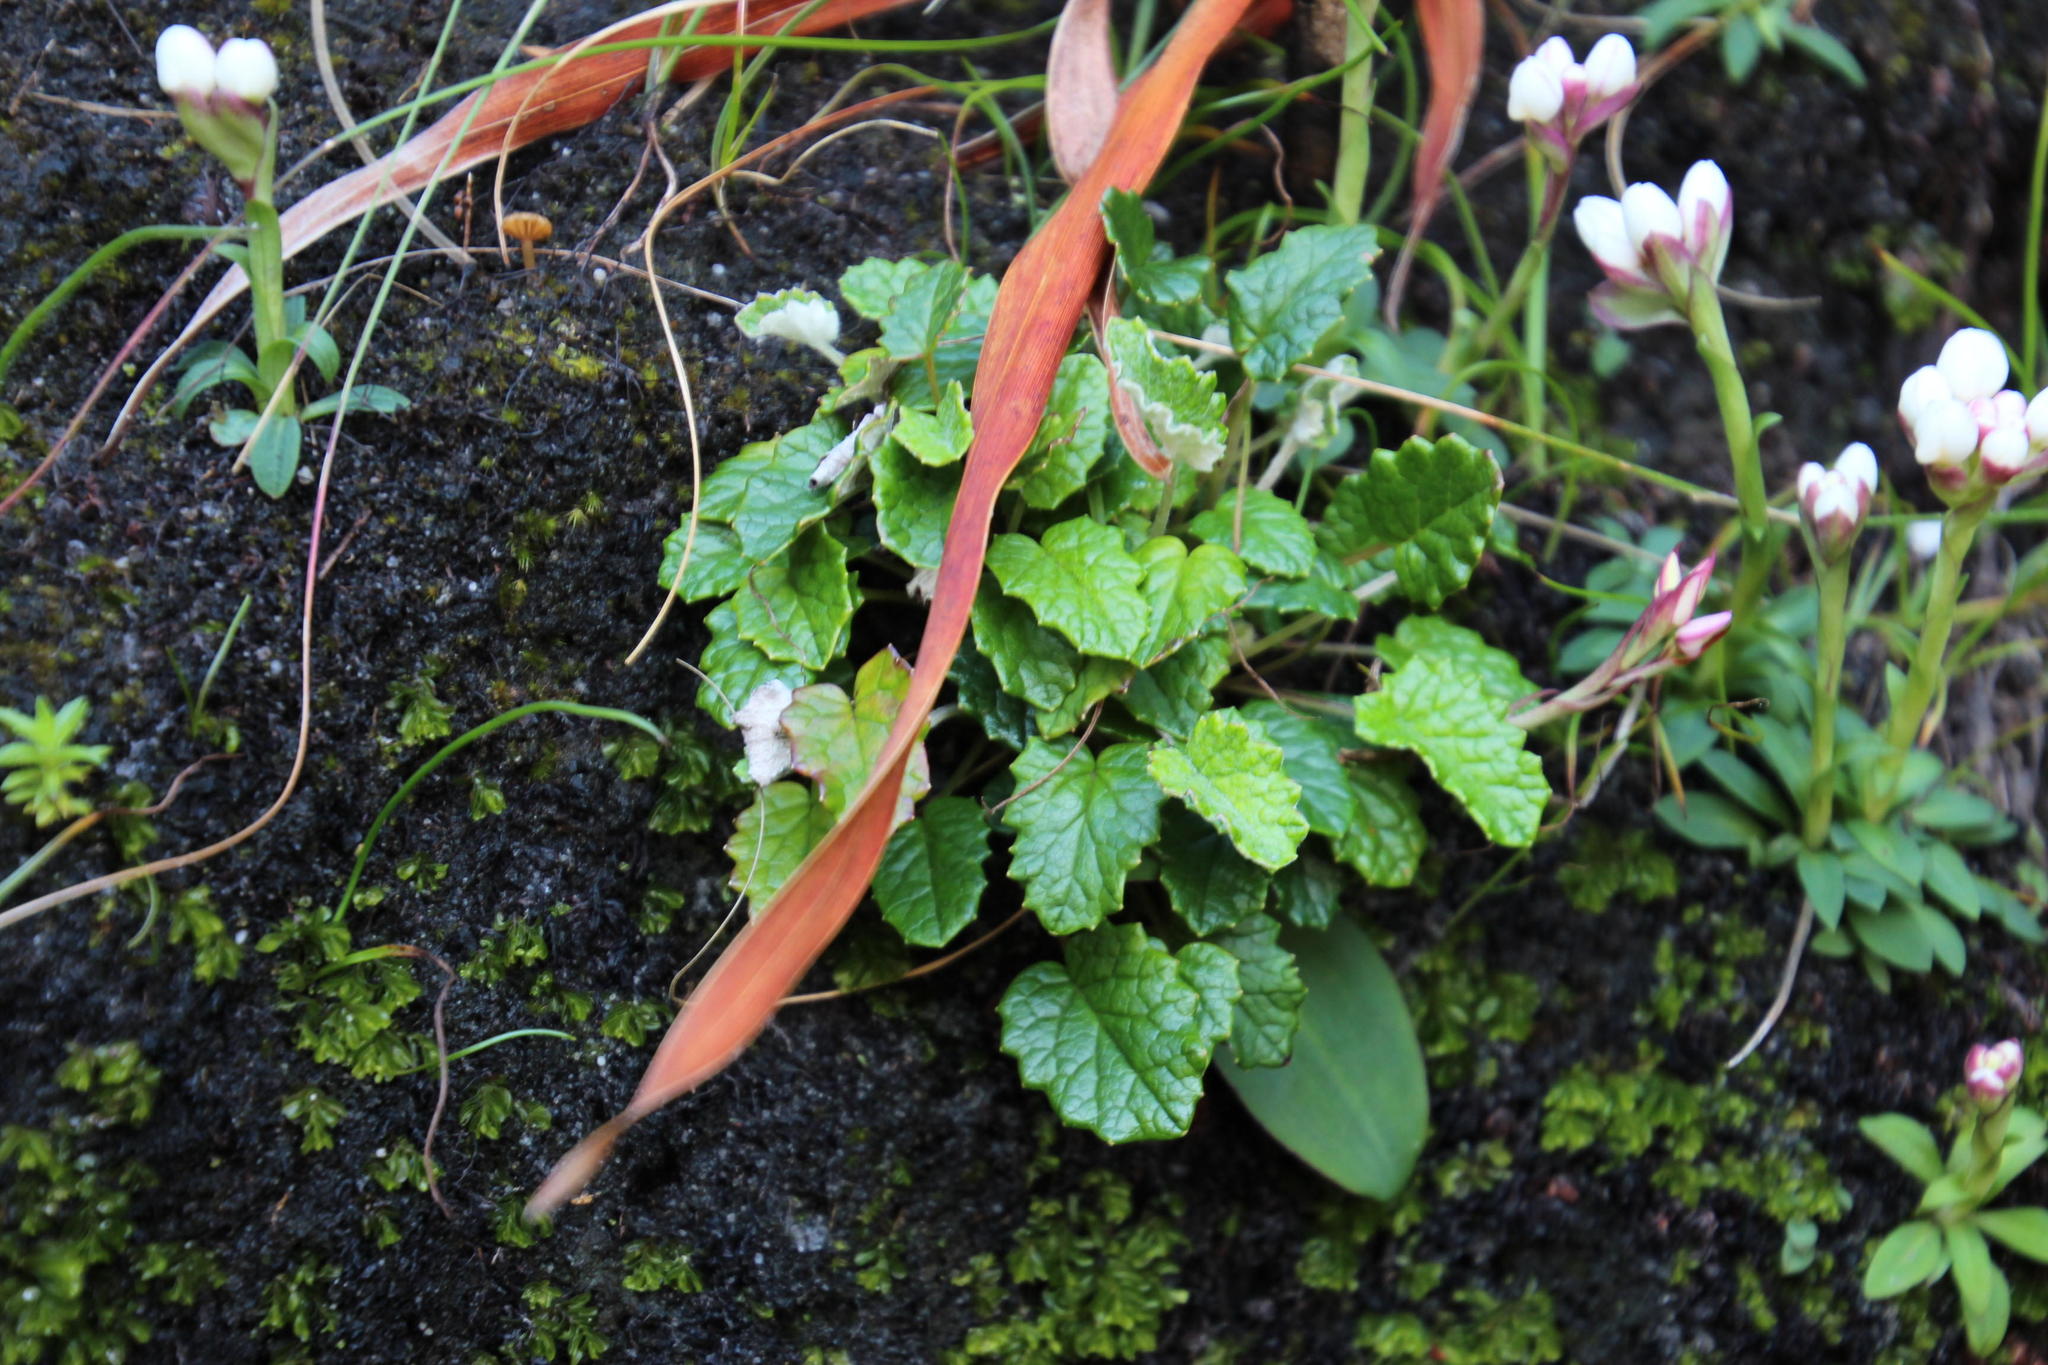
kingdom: Plantae
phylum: Tracheophyta
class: Magnoliopsida
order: Apiales
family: Apiaceae
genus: Hermas
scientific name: Hermas capitata
